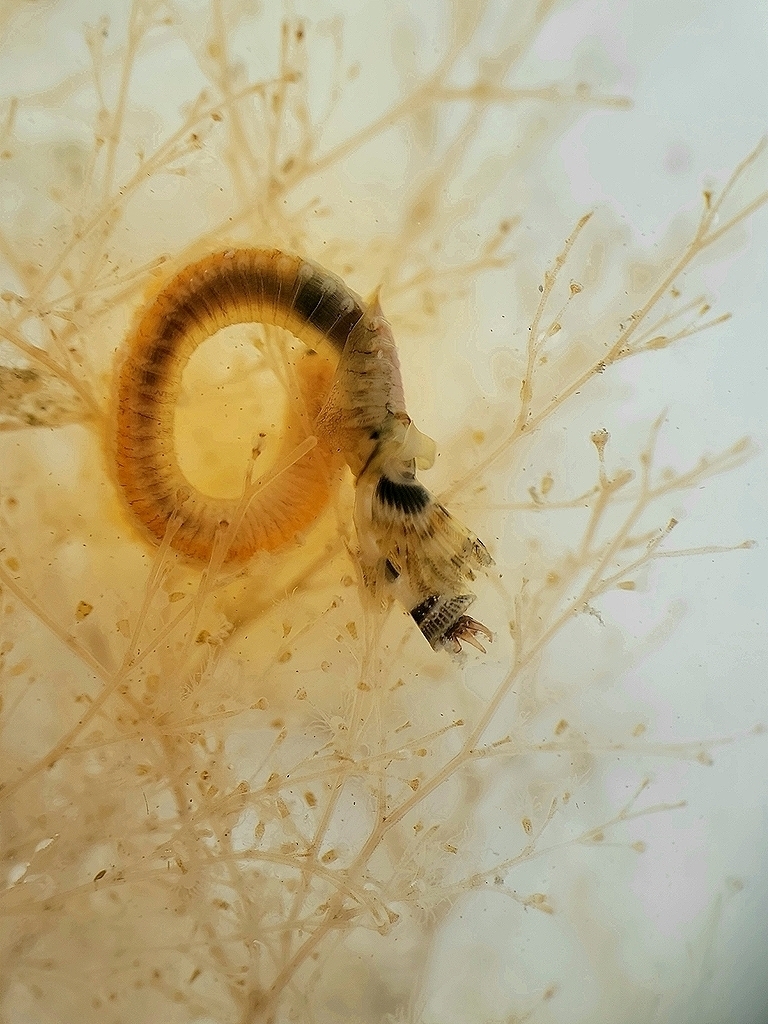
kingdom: Animalia
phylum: Annelida
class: Polychaeta
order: Sabellida
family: Serpulidae
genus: Hydroides
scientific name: Hydroides gracilis
